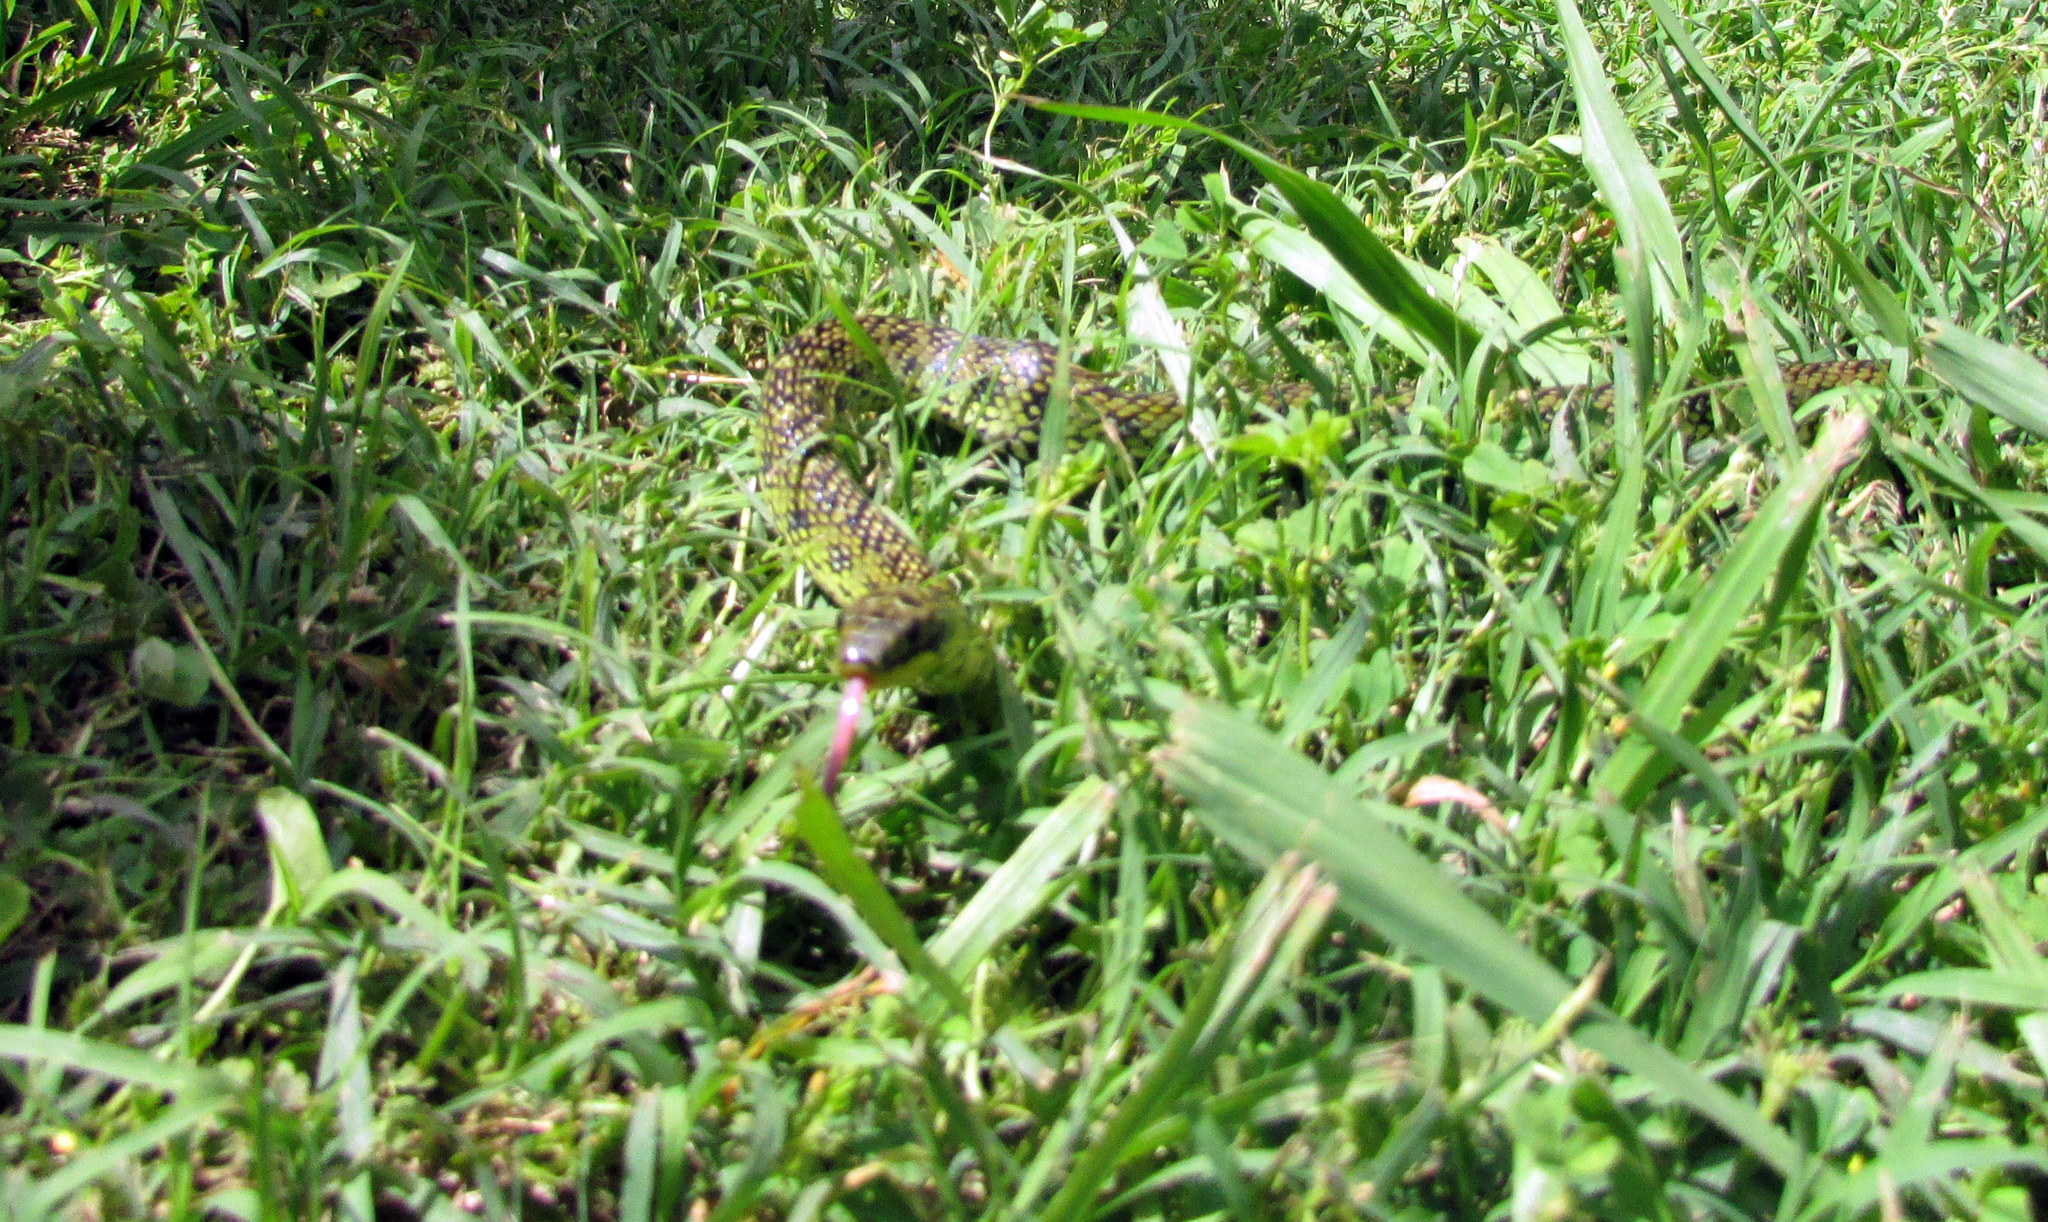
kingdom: Animalia
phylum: Chordata
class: Squamata
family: Colubridae
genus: Erythrolamprus
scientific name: Erythrolamprus poecilogyrus
